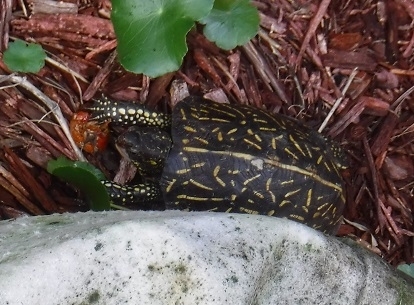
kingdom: Animalia
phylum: Chordata
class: Testudines
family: Emydidae
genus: Terrapene
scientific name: Terrapene carolina
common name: Common box turtle
